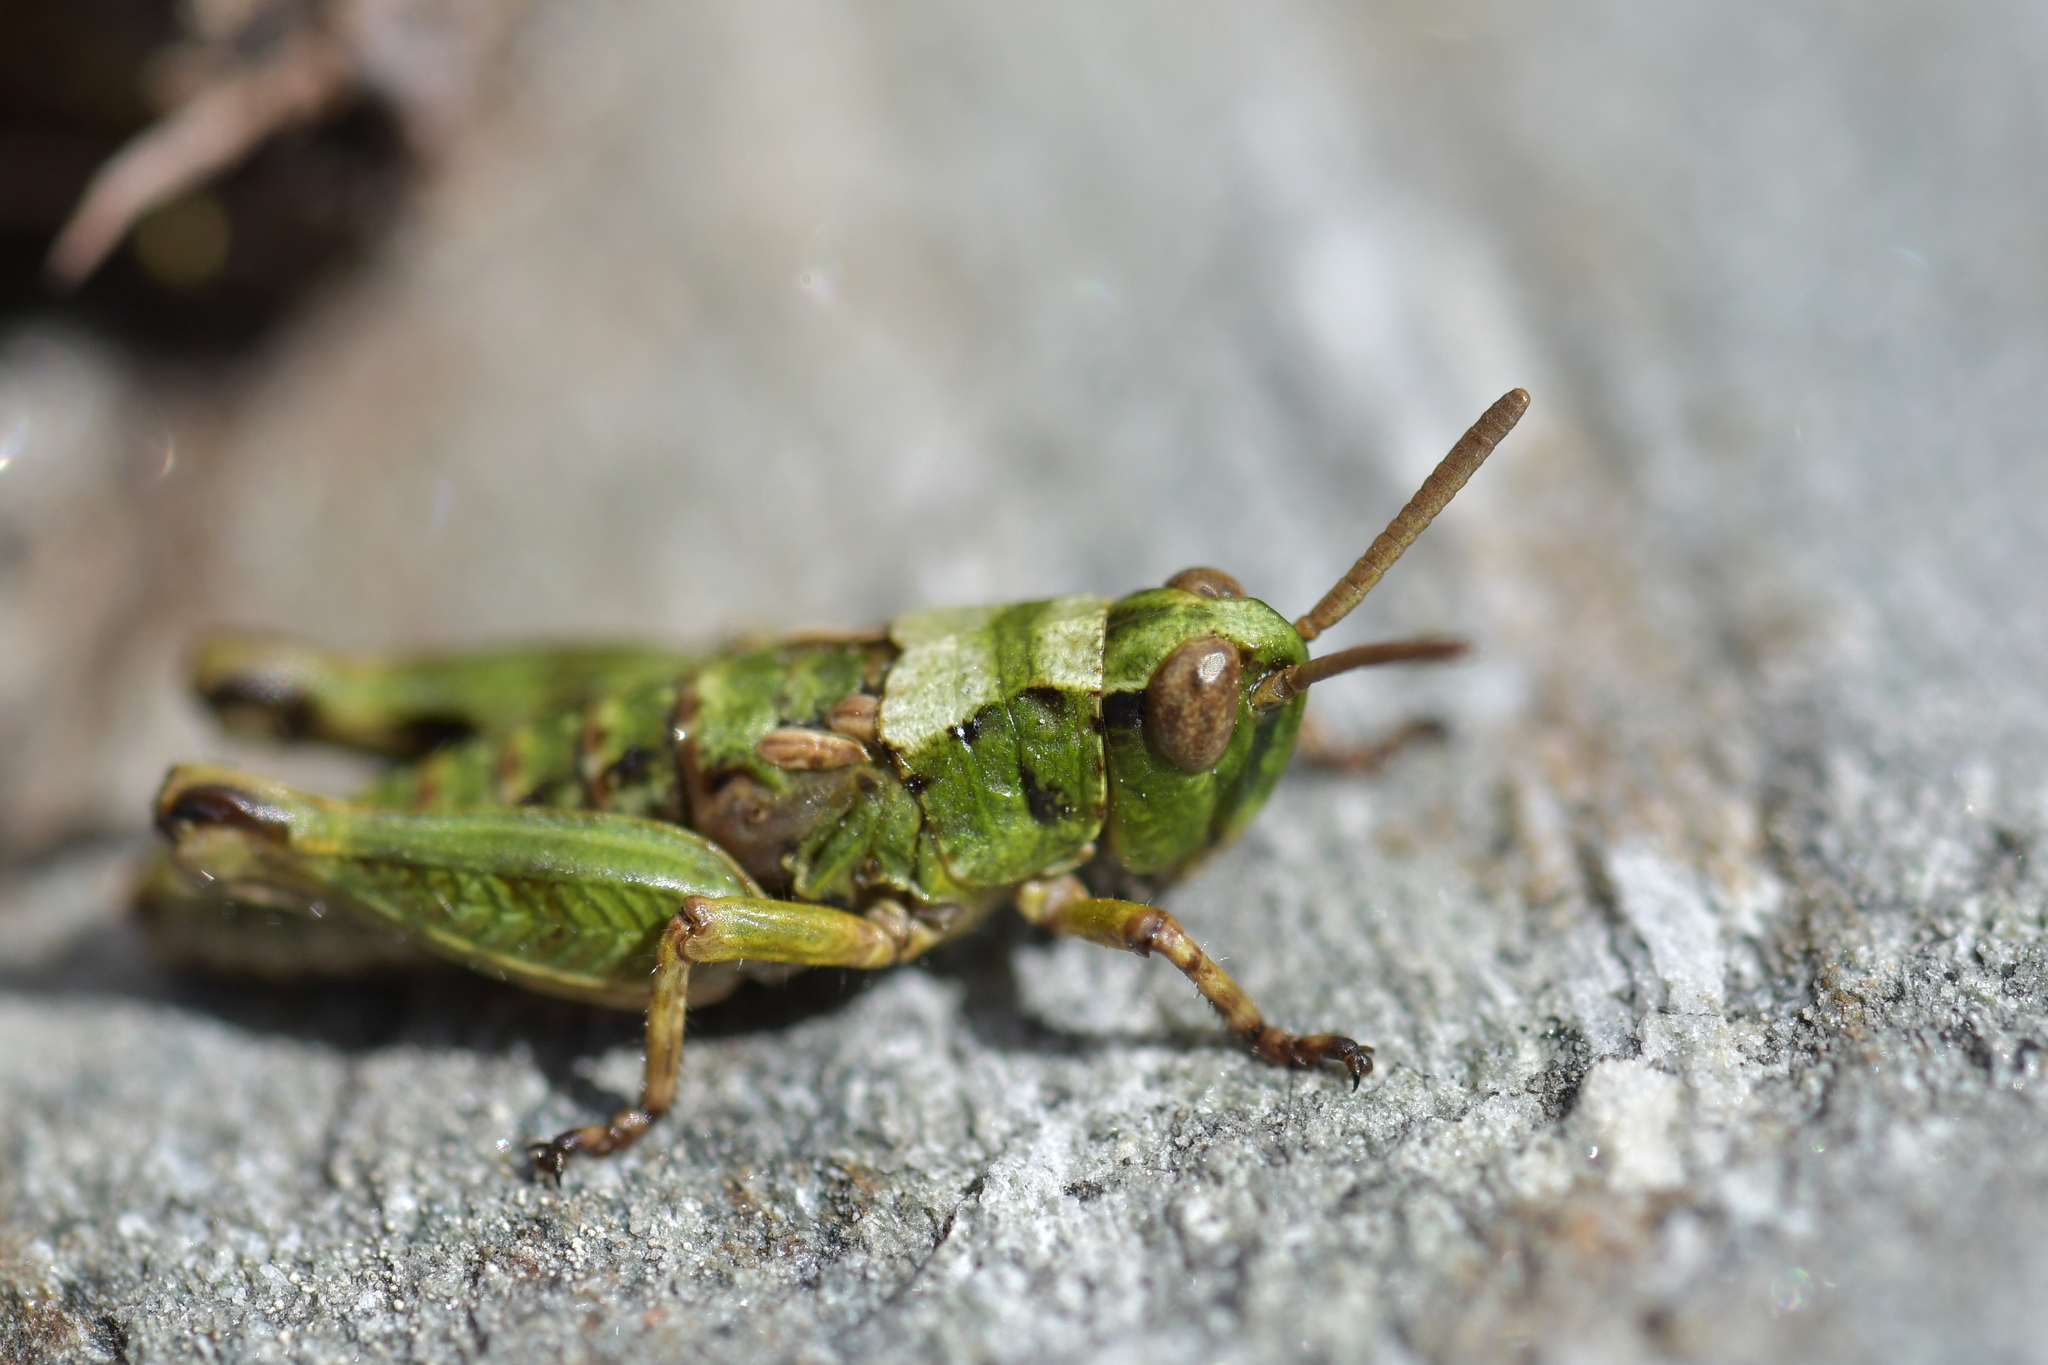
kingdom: Animalia
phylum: Arthropoda
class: Insecta
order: Orthoptera
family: Acrididae
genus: Sigaus
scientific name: Sigaus australis
